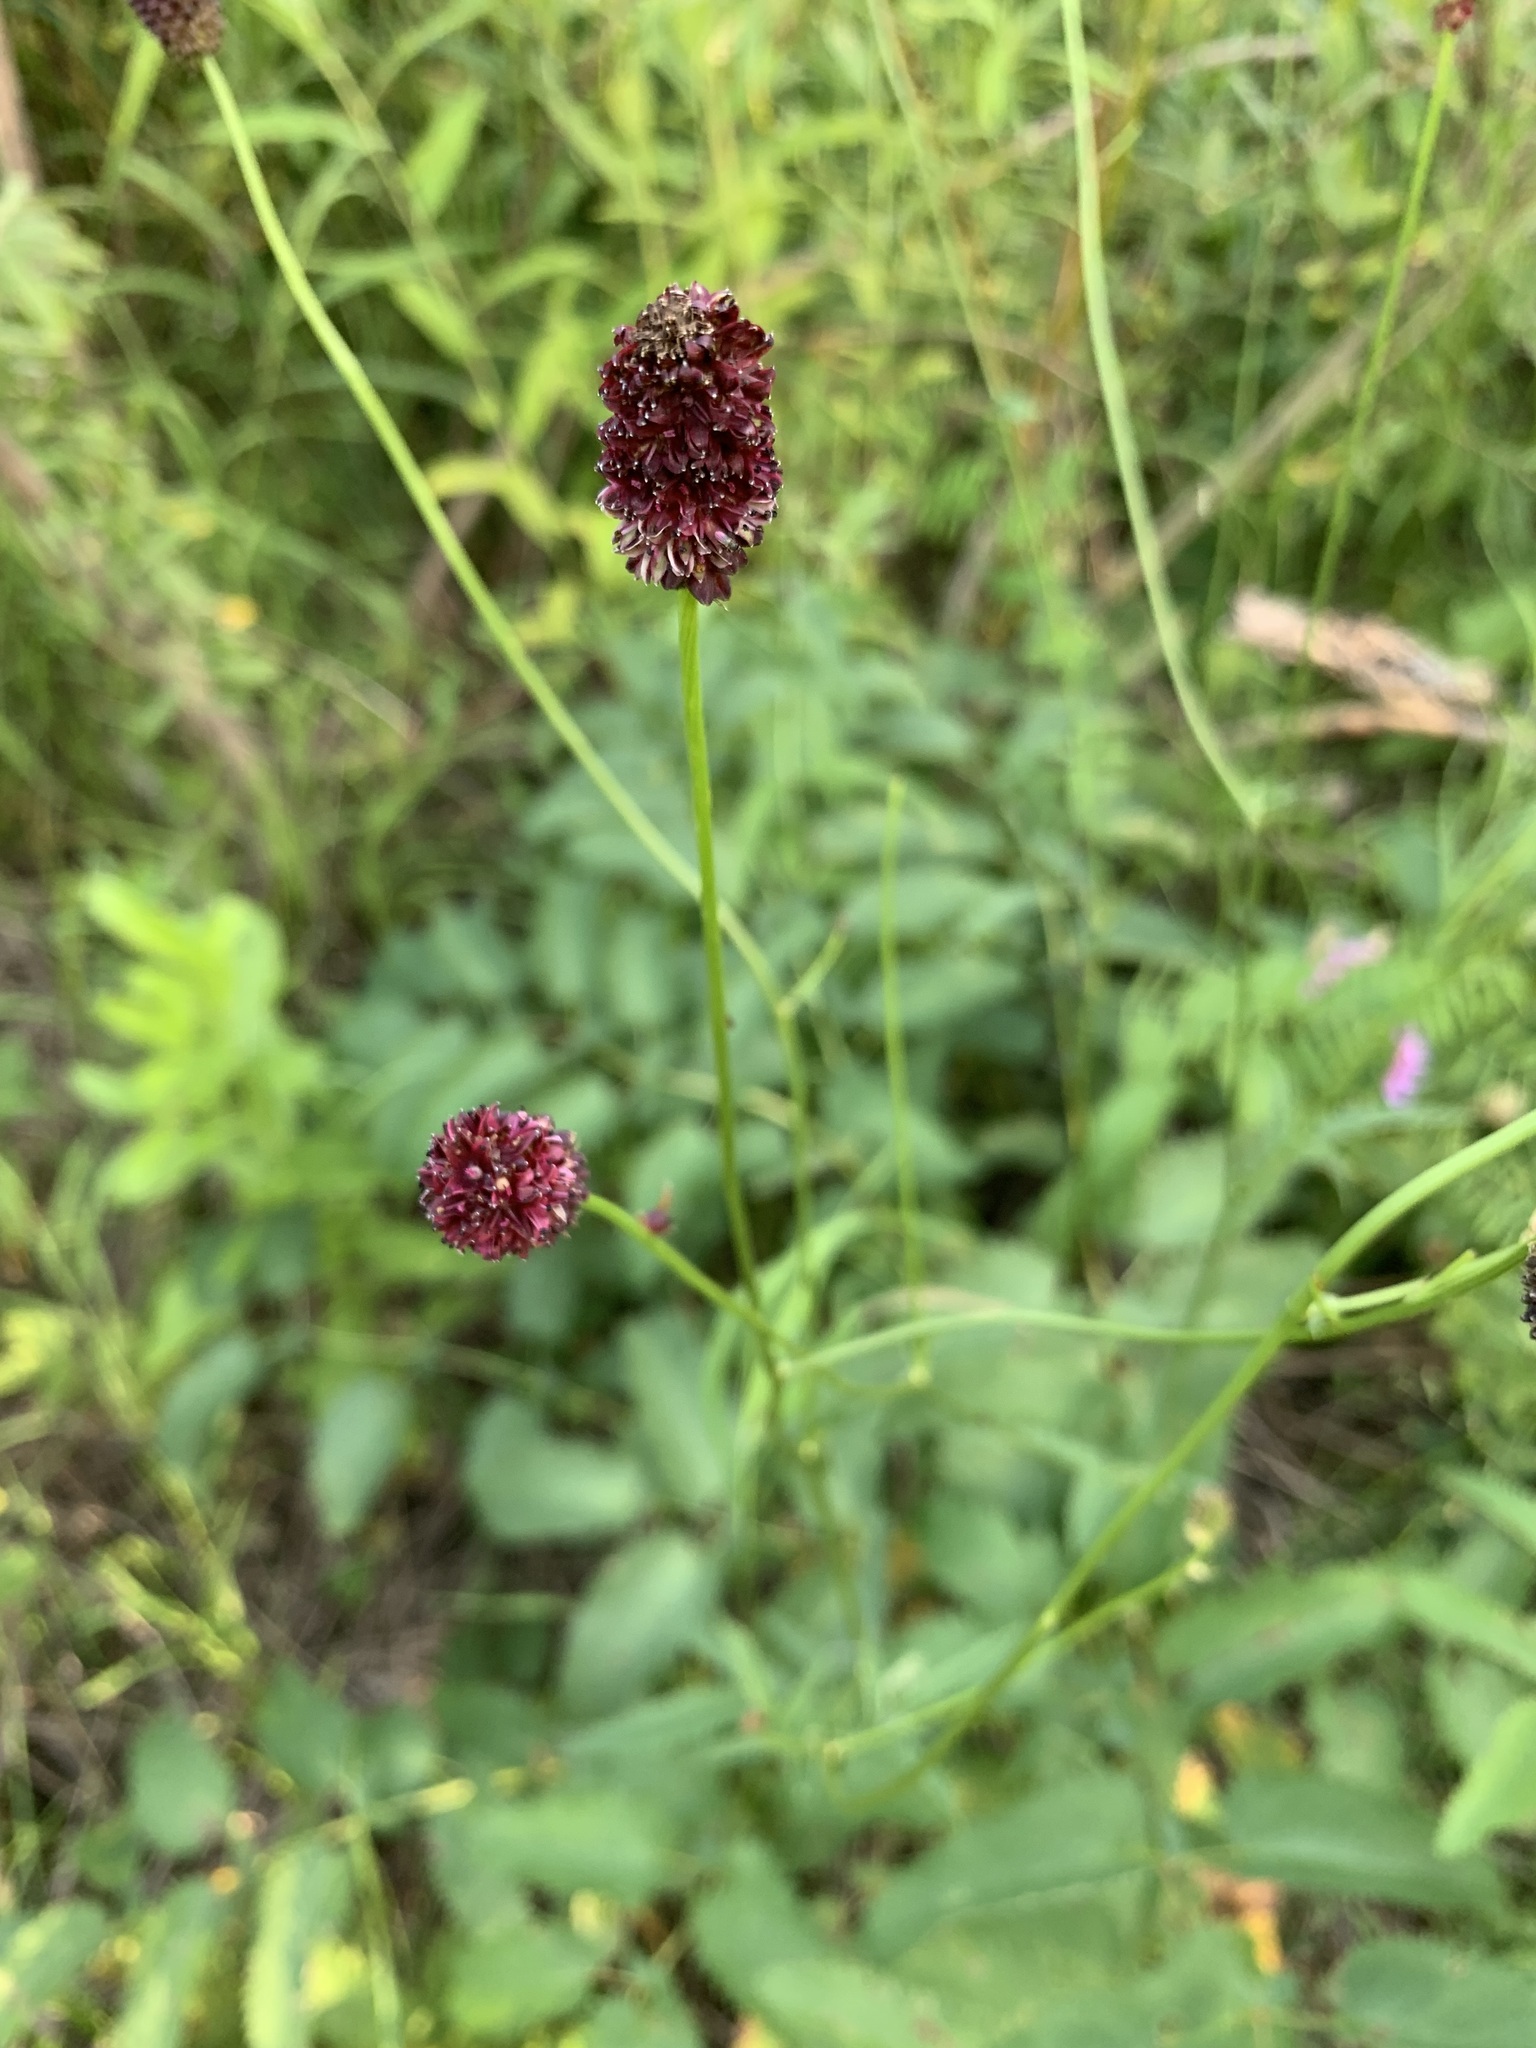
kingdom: Plantae
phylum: Tracheophyta
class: Magnoliopsida
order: Rosales
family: Rosaceae
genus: Sanguisorba
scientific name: Sanguisorba officinalis
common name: Great burnet
